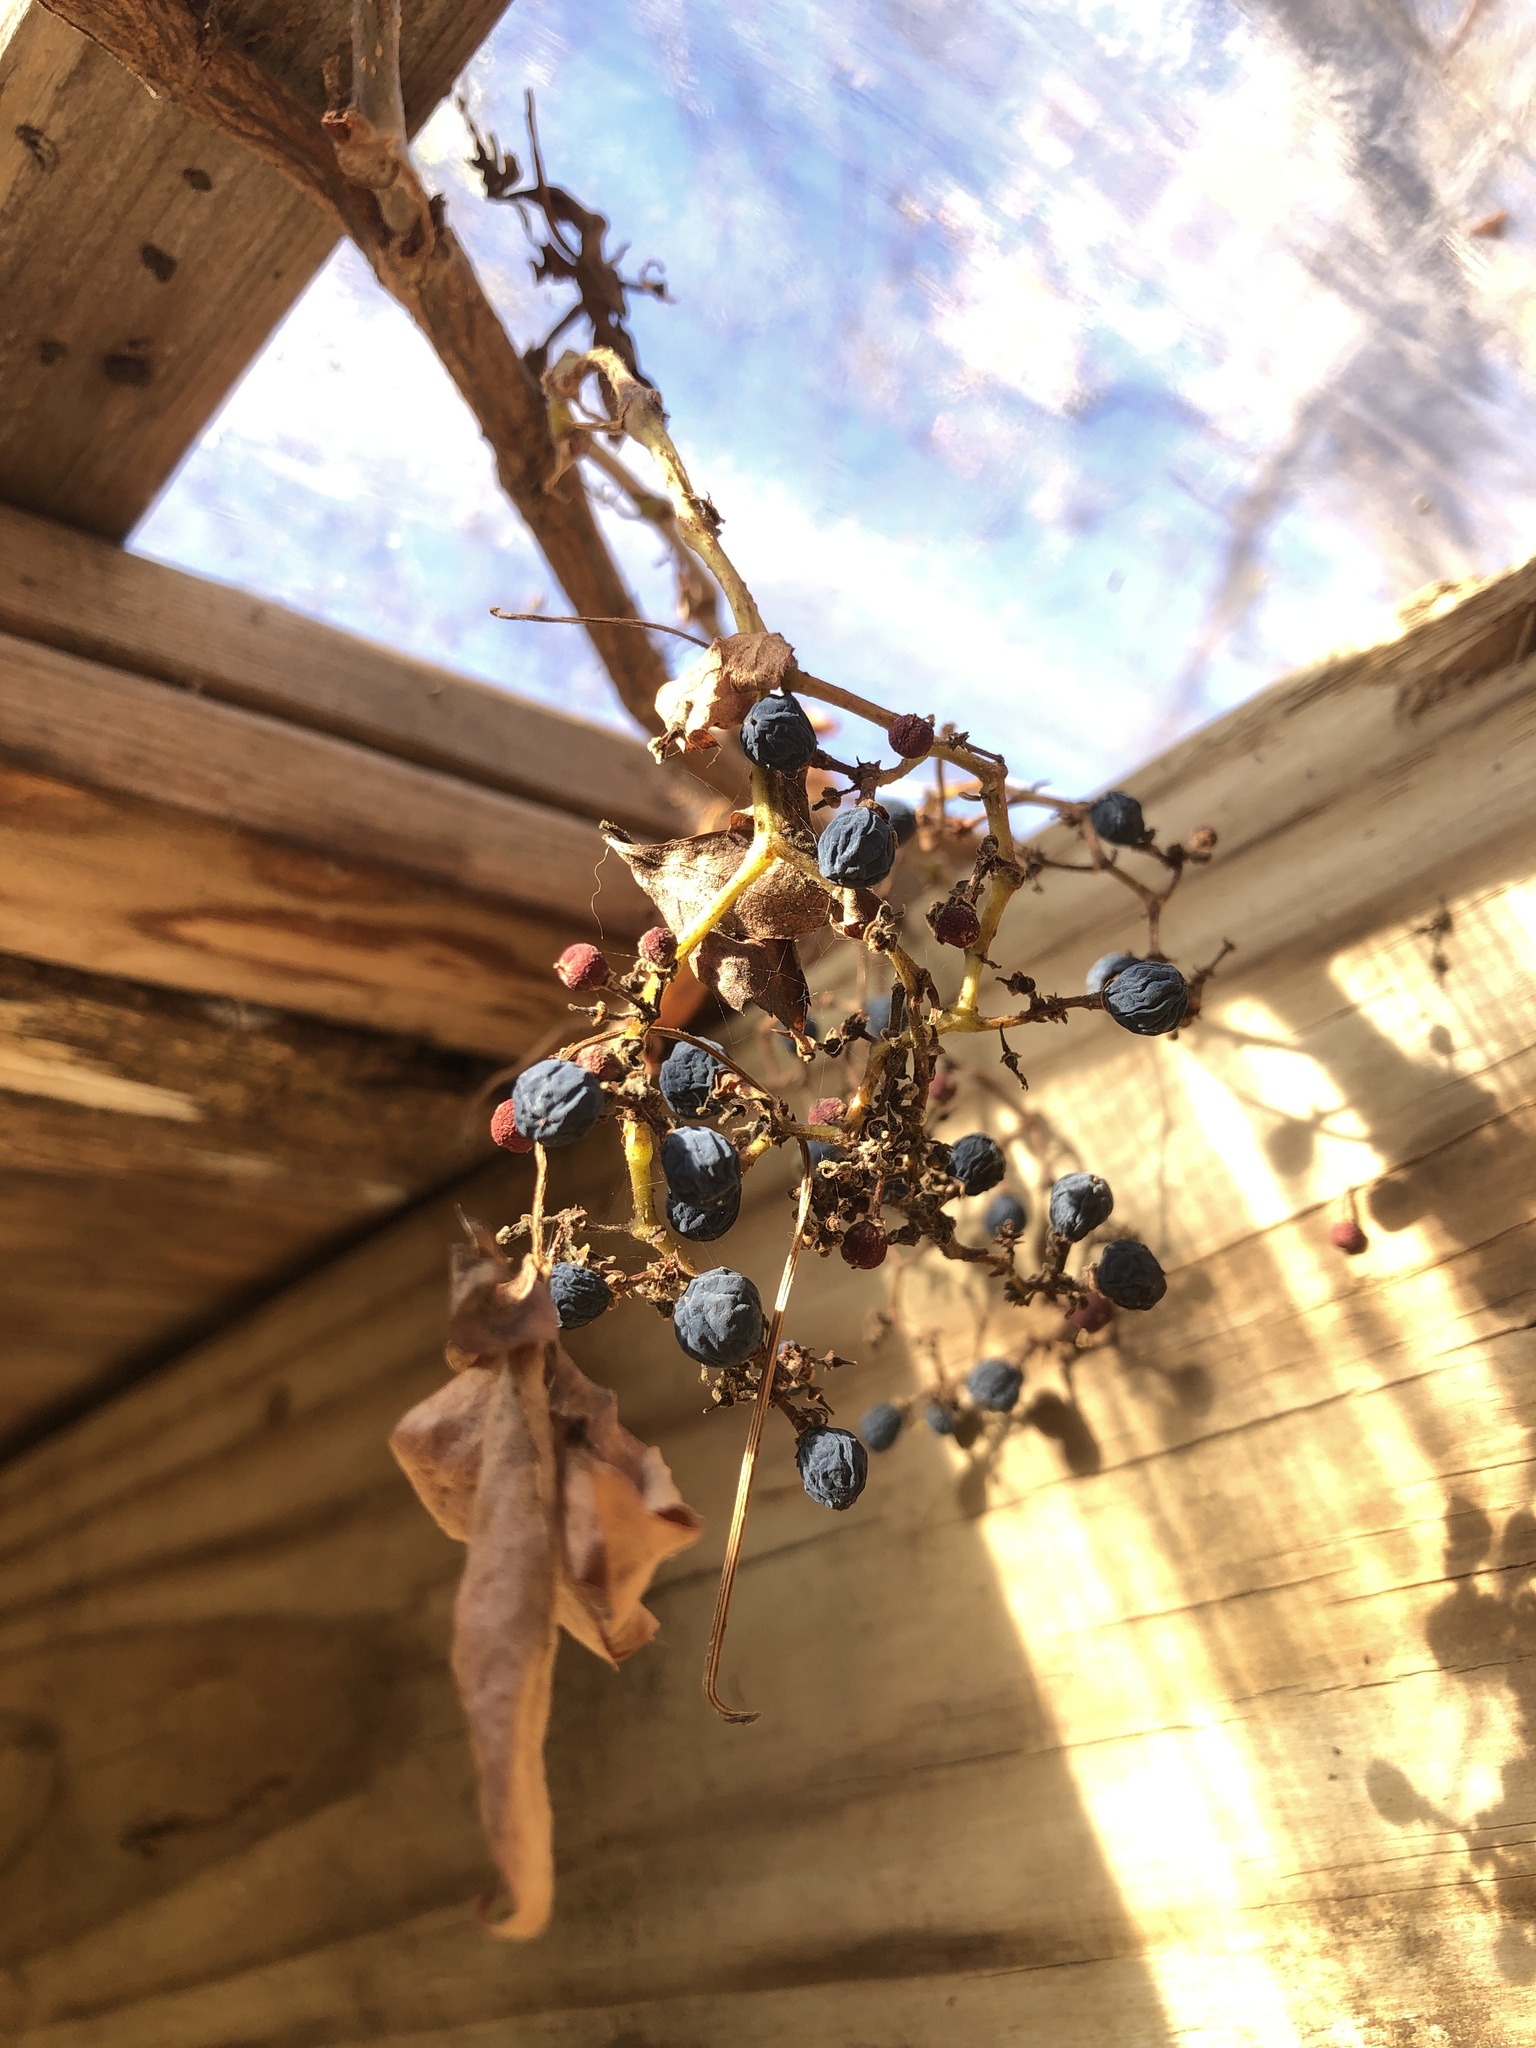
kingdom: Plantae
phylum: Tracheophyta
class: Magnoliopsida
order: Vitales
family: Vitaceae
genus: Parthenocissus
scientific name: Parthenocissus quinquefolia
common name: Virginia-creeper
